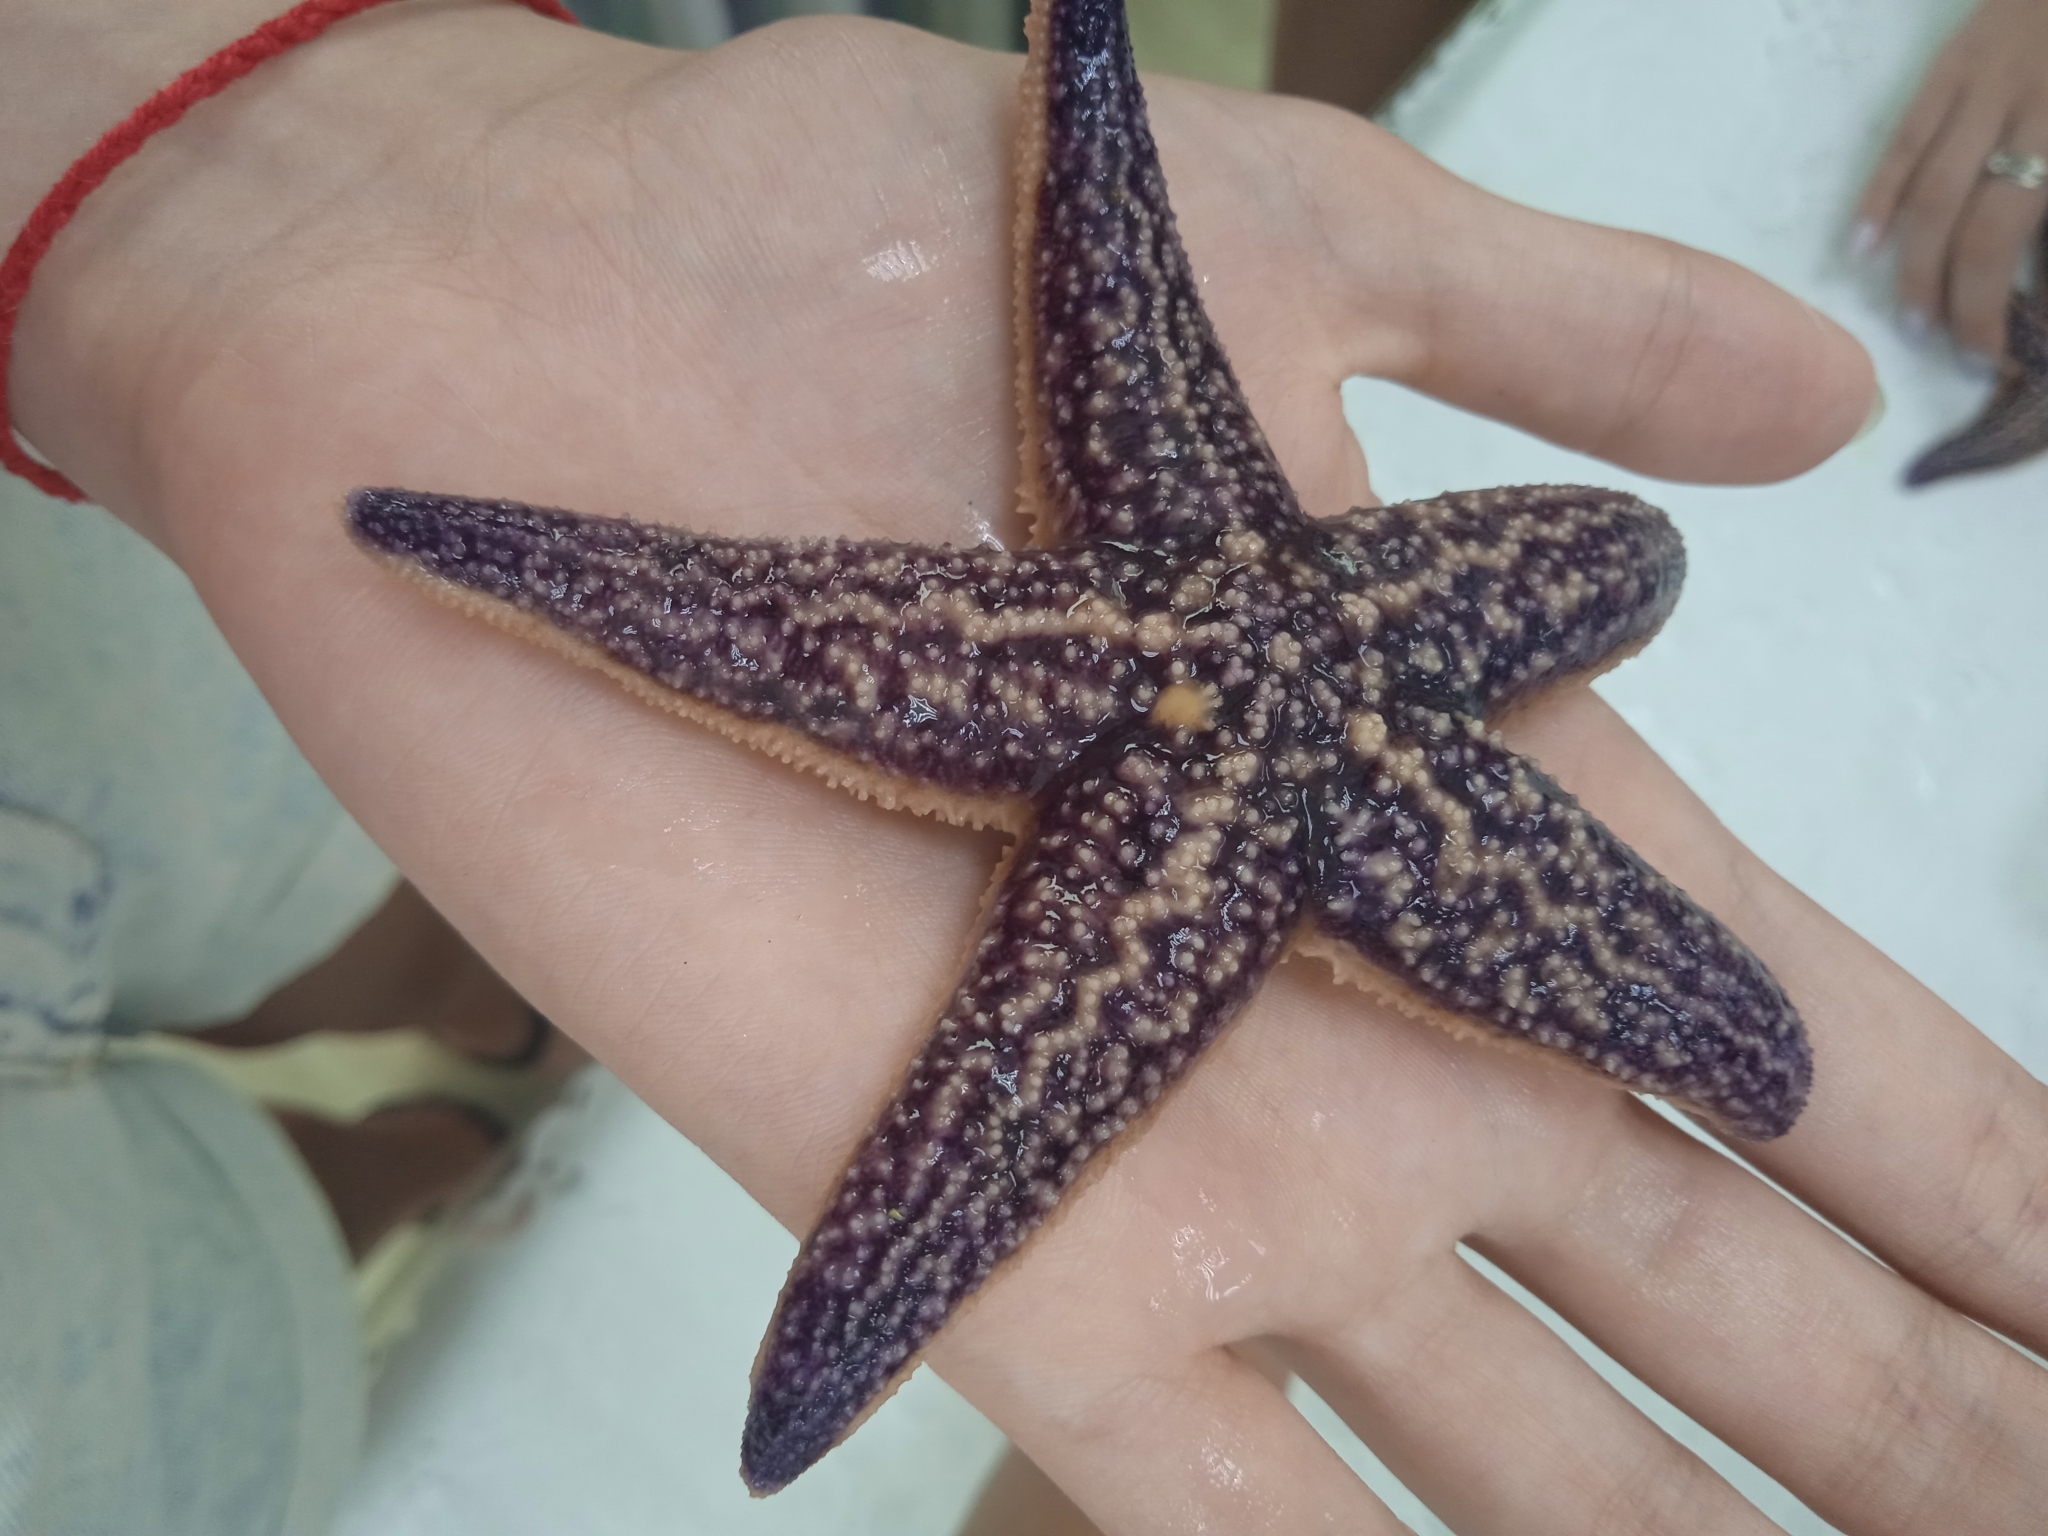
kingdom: Animalia
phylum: Echinodermata
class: Asteroidea
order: Forcipulatida
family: Asteriidae
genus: Asterias
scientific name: Asterias amurensis
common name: Flat-bottomed star
